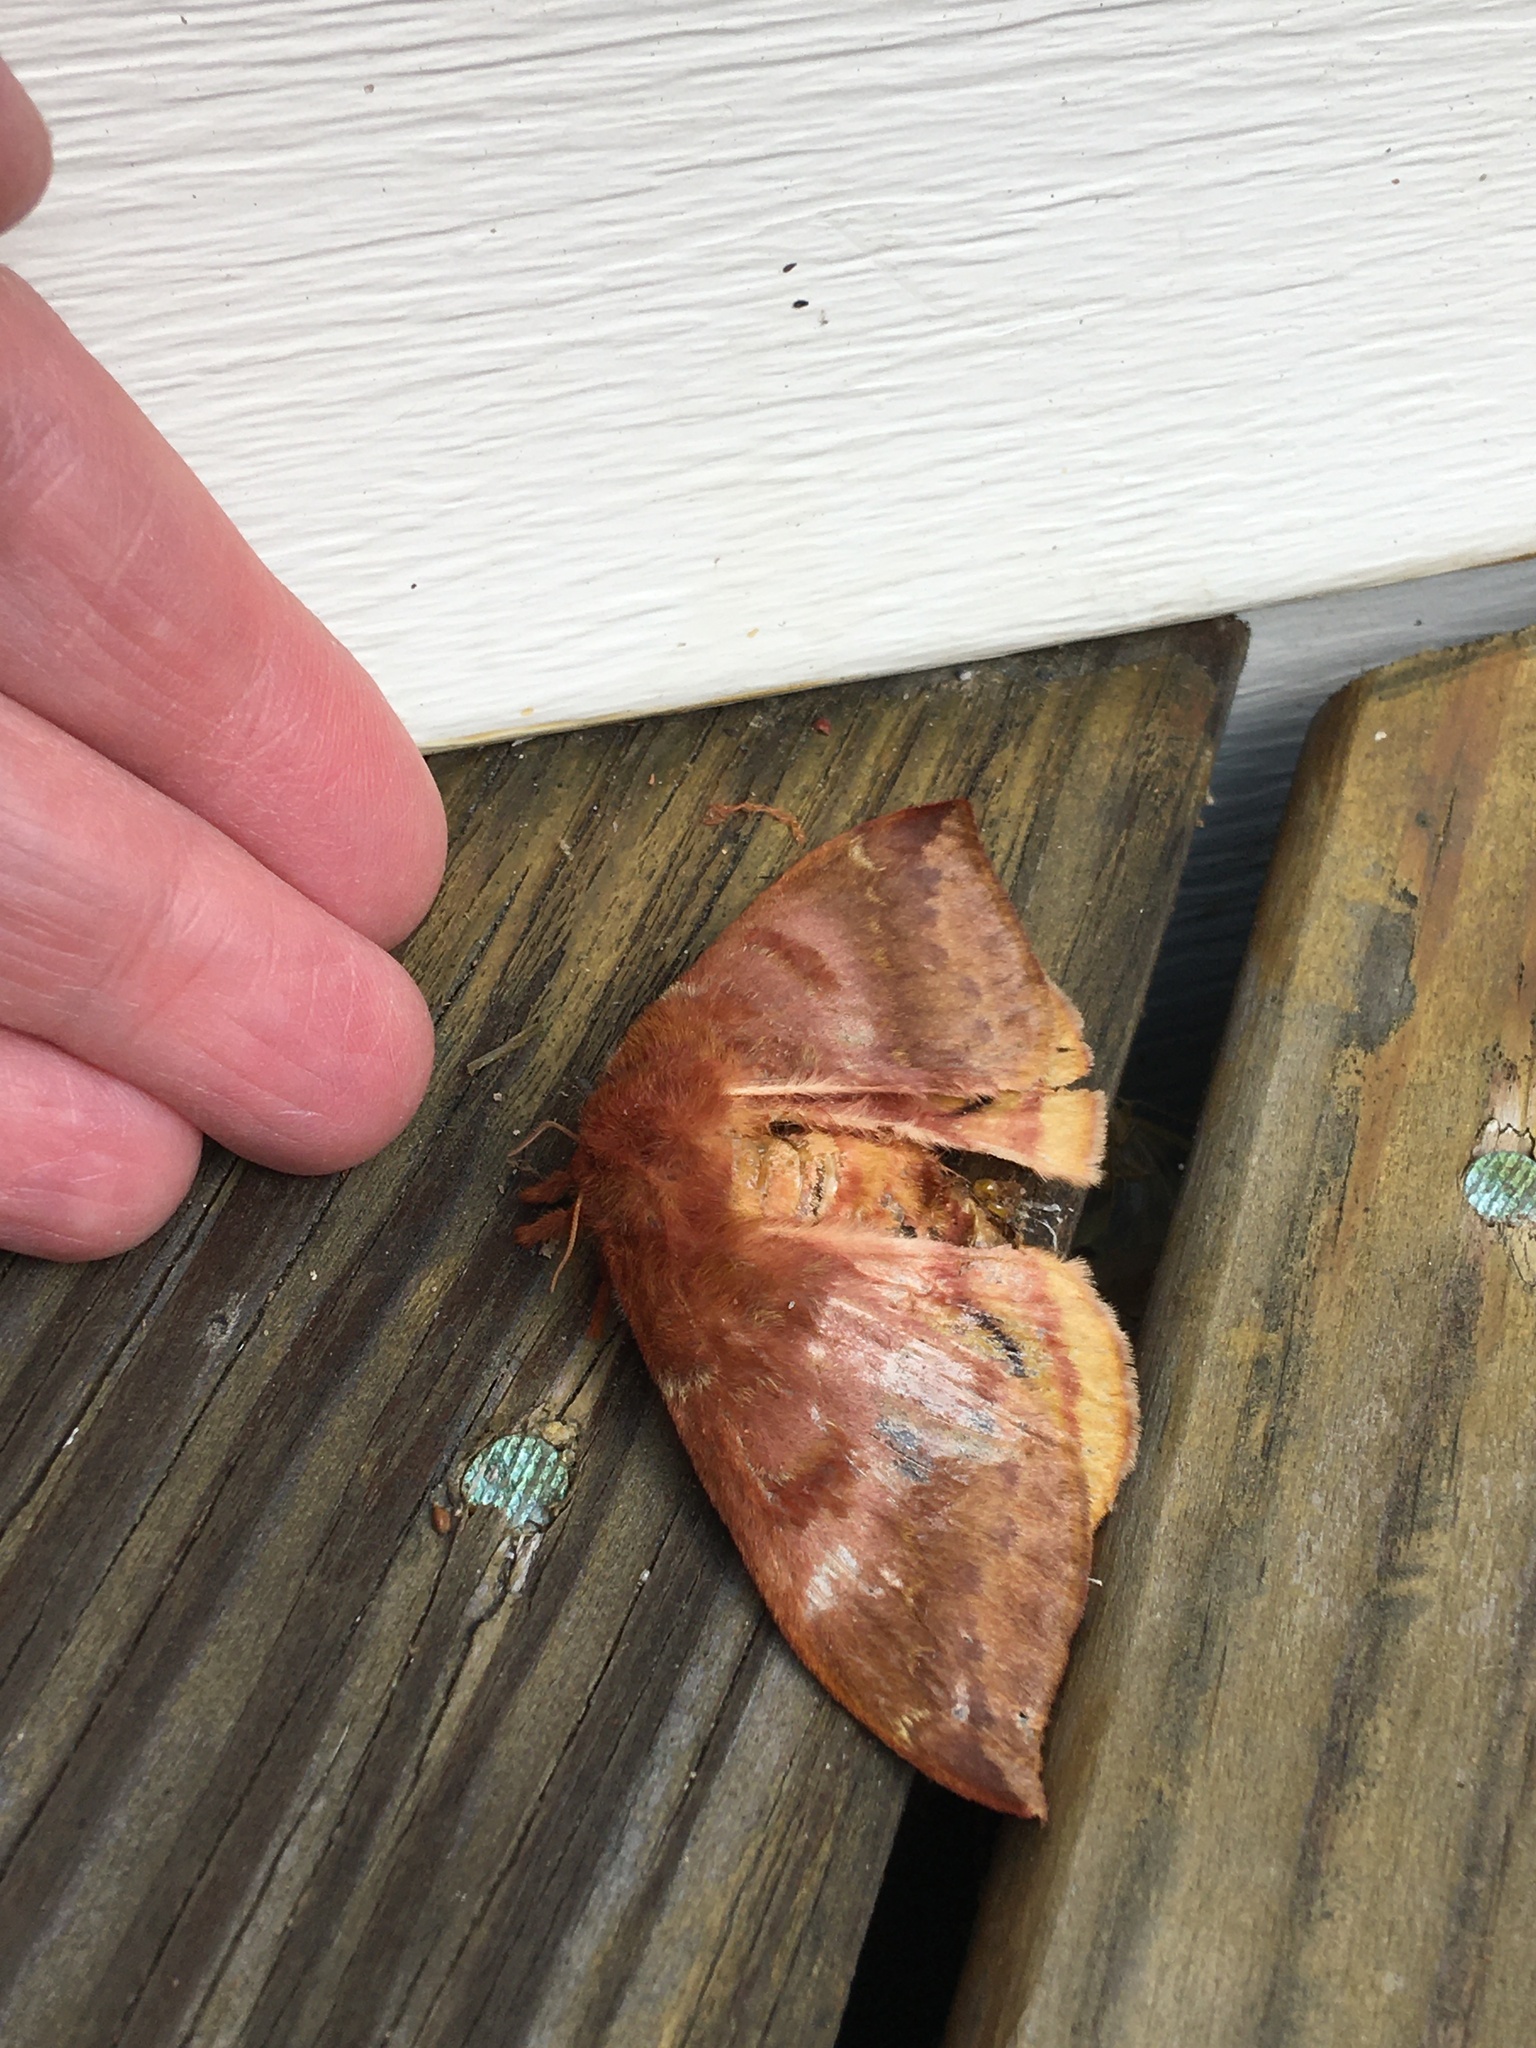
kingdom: Animalia
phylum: Arthropoda
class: Insecta
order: Lepidoptera
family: Saturniidae
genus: Automeris
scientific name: Automeris io
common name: Io moth
